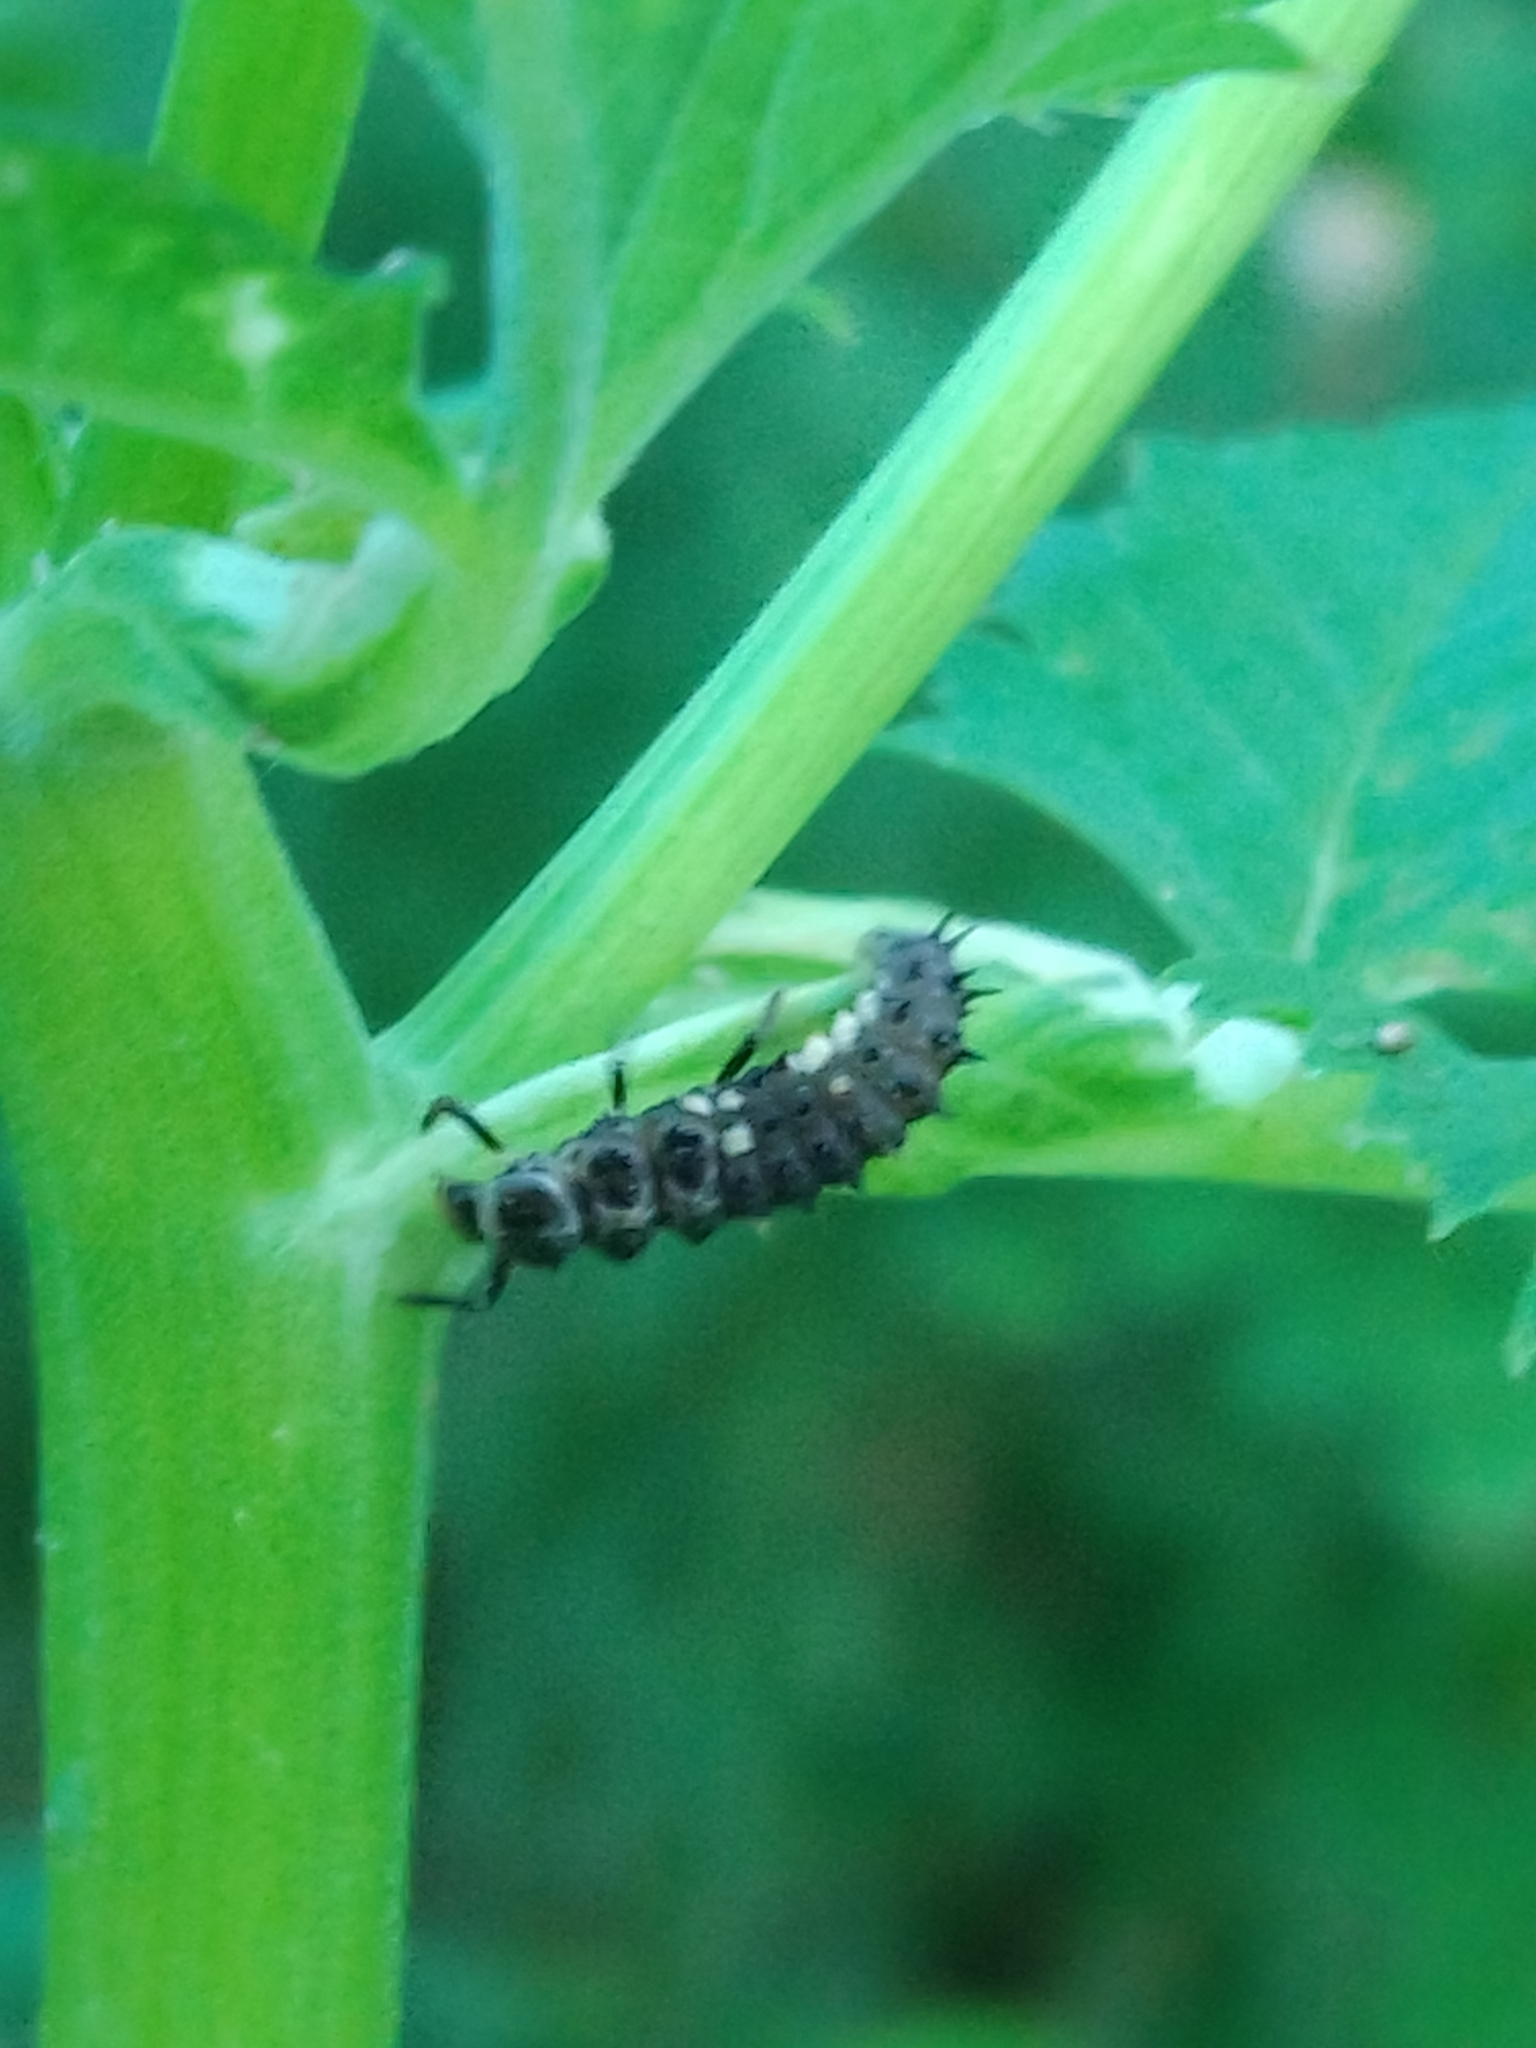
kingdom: Animalia
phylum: Arthropoda
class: Insecta
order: Coleoptera
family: Coccinellidae
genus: Calvia
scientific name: Calvia quatuordecimguttata
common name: Cream-spot ladybird
